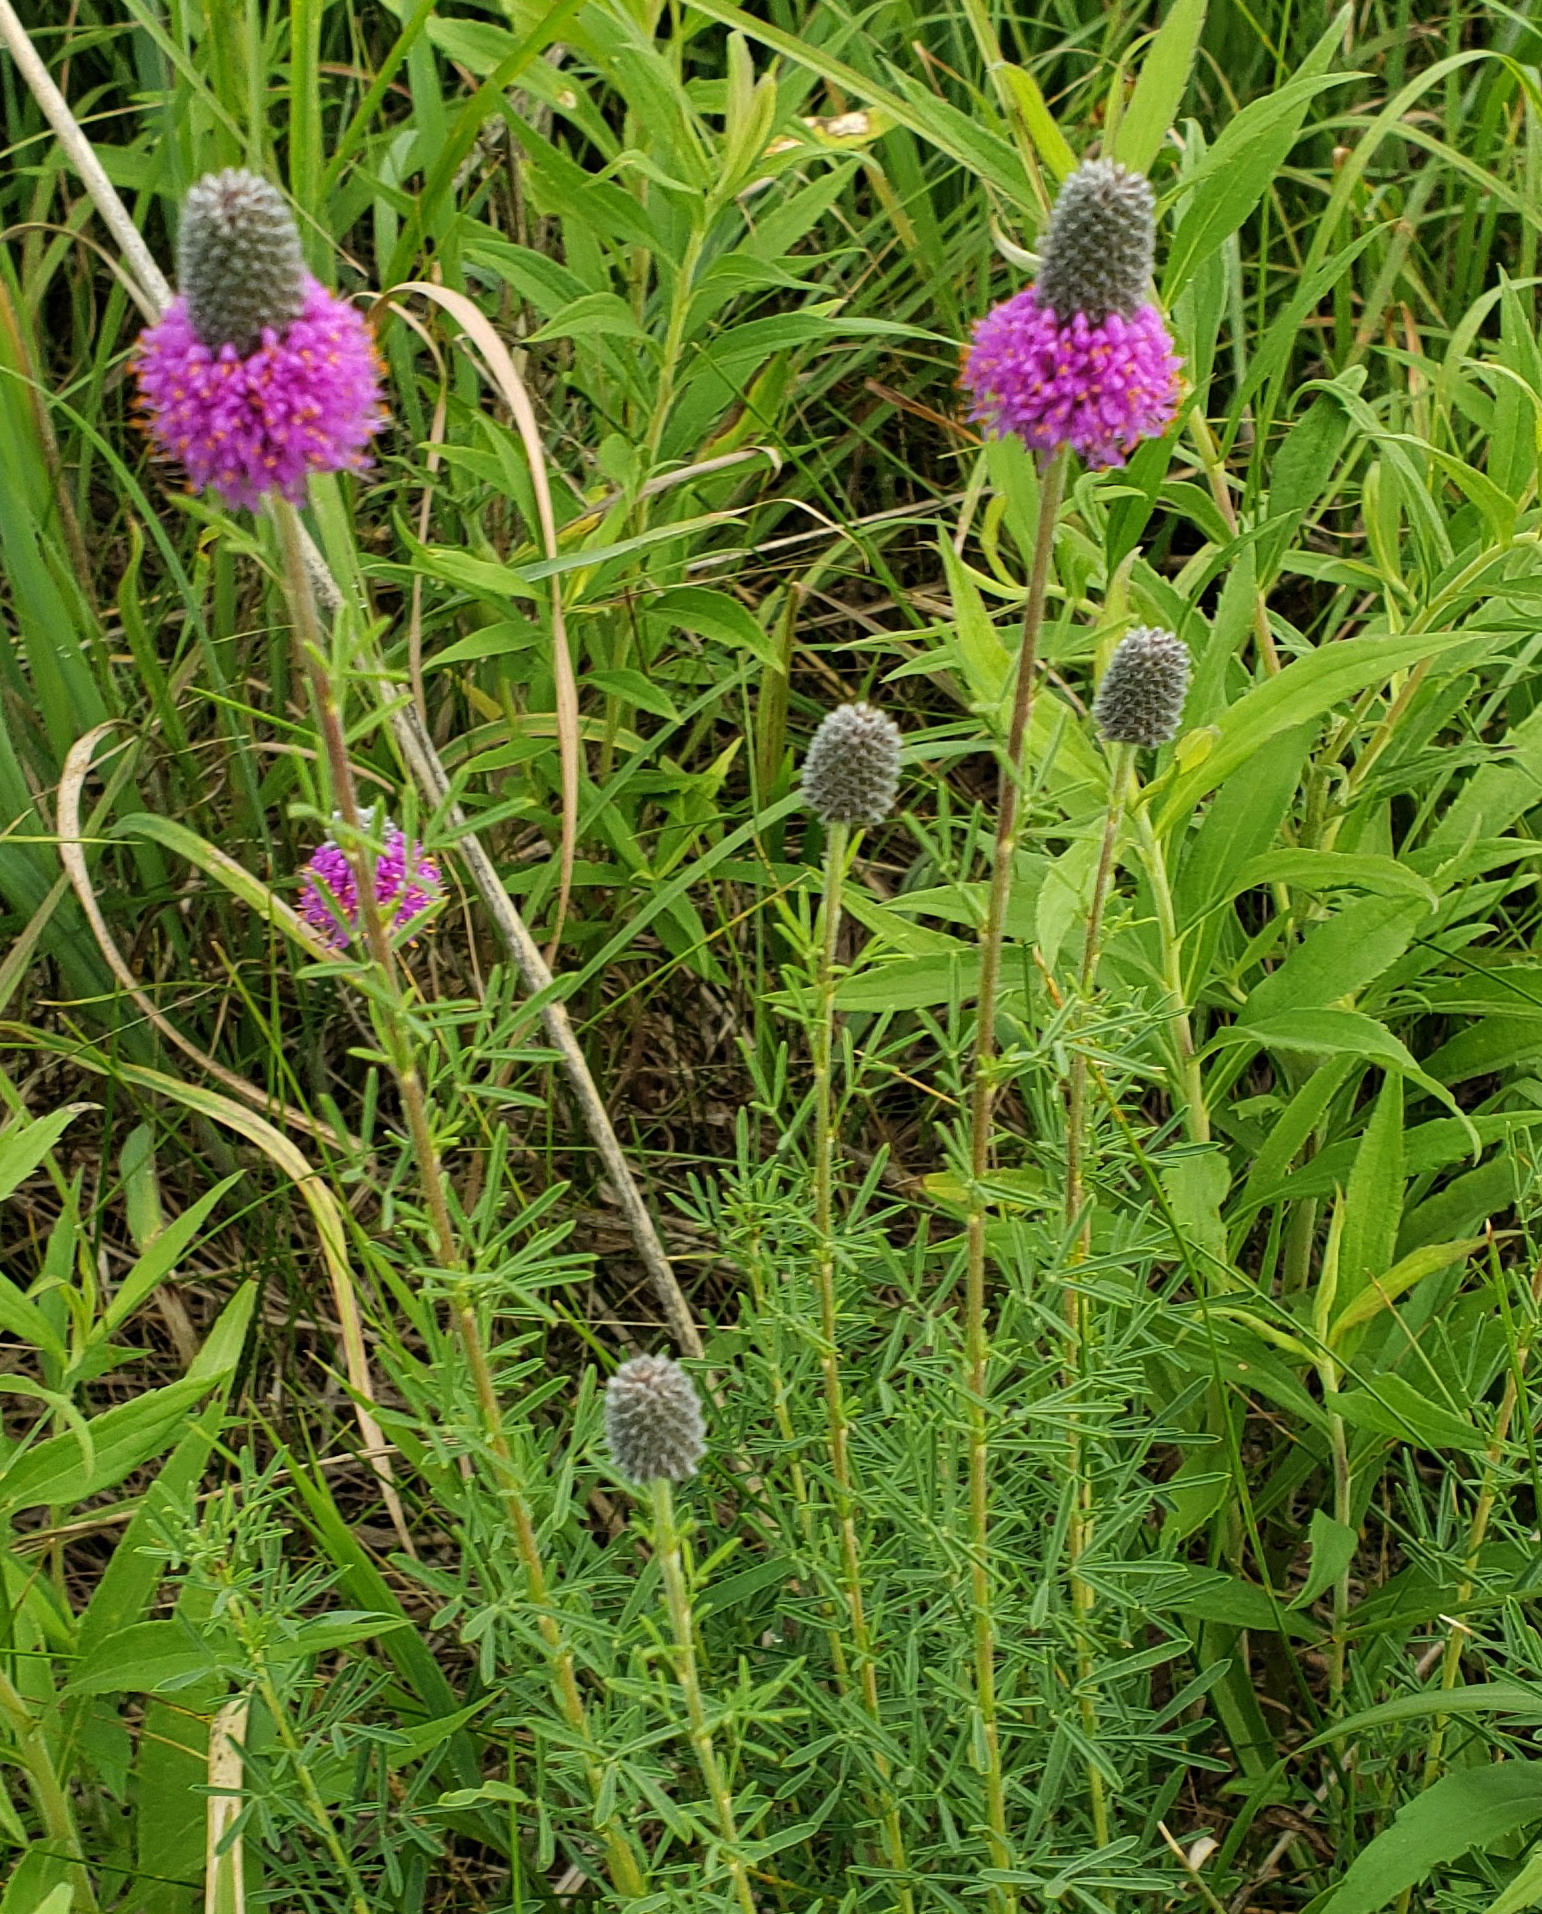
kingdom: Plantae
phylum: Tracheophyta
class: Magnoliopsida
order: Fabales
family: Fabaceae
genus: Dalea
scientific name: Dalea purpurea
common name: Purple prairie-clover
